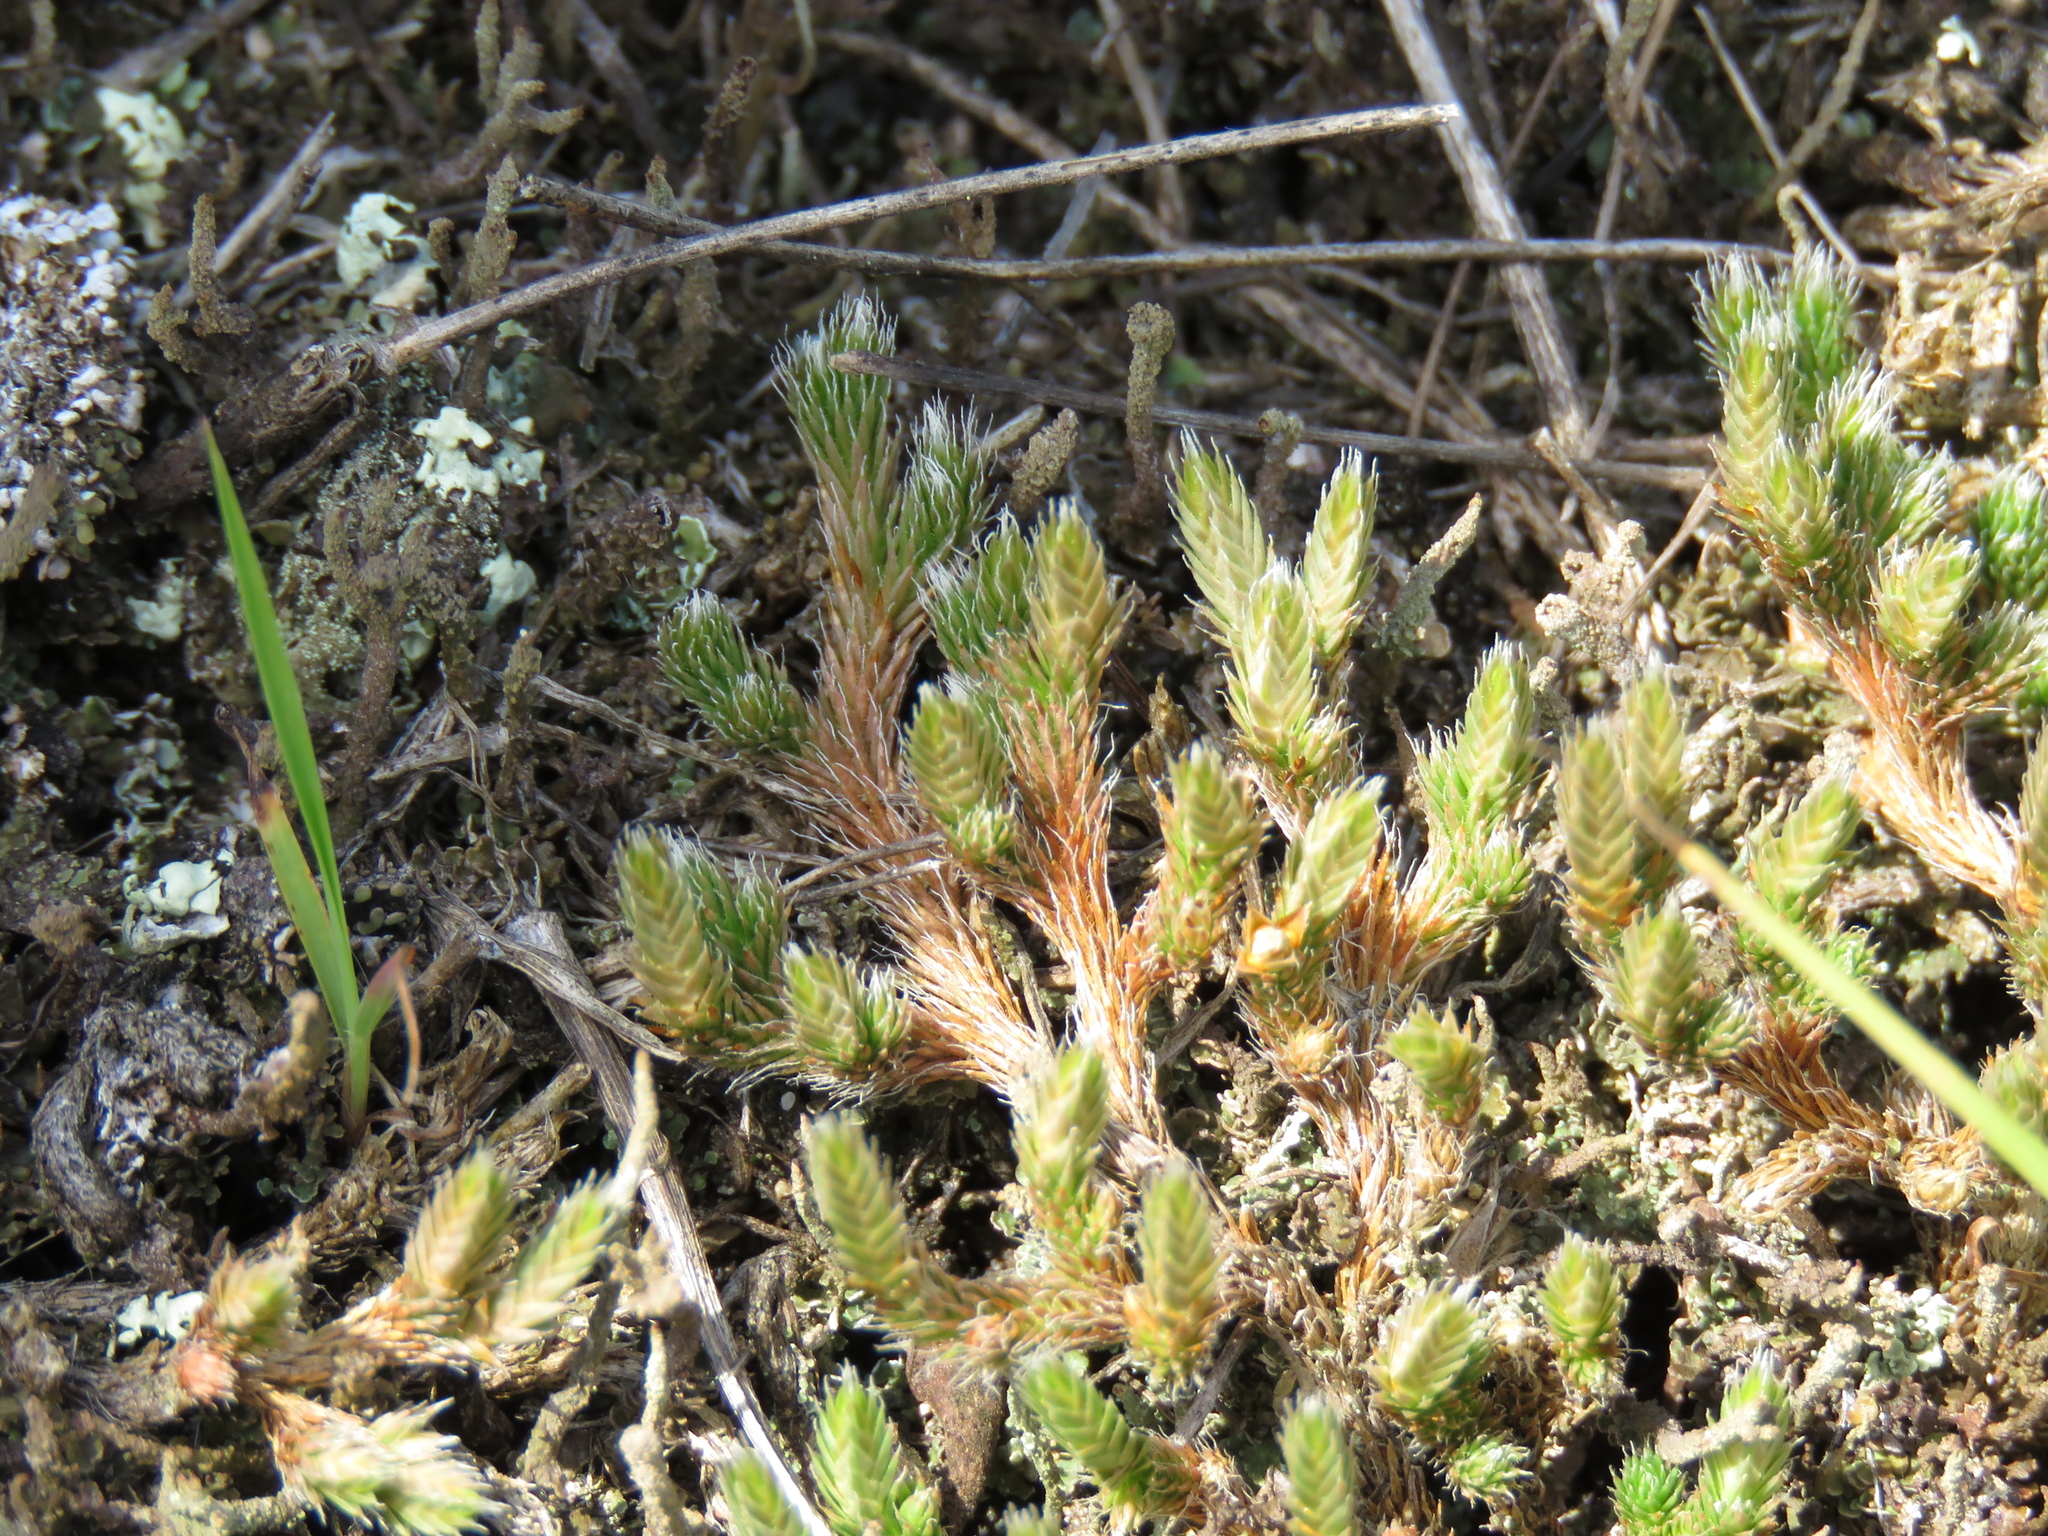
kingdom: Plantae
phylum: Tracheophyta
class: Lycopodiopsida
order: Selaginellales
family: Selaginellaceae
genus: Selaginella
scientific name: Selaginella rupestris
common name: Dwarf spikemoss
